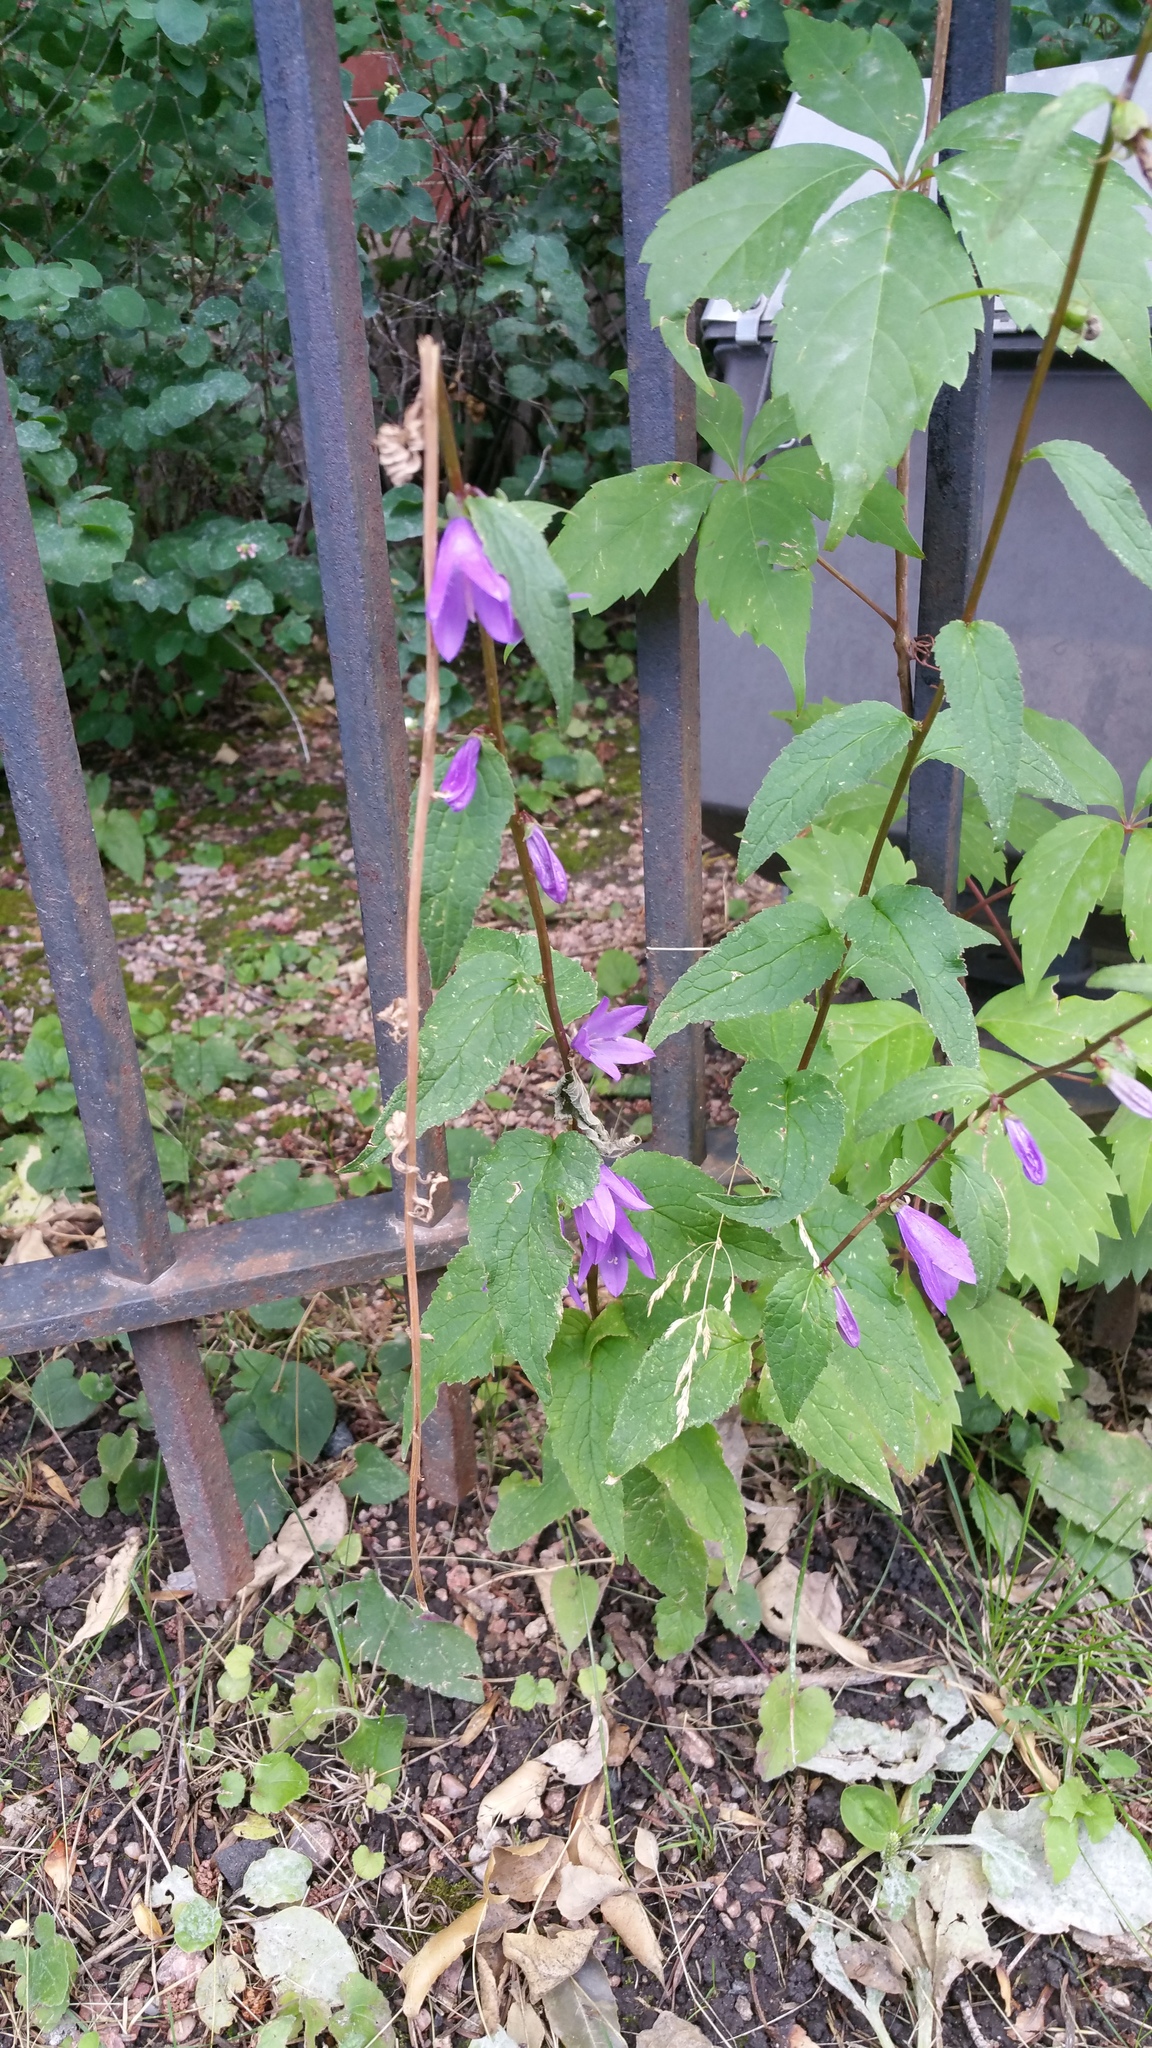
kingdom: Plantae
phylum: Tracheophyta
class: Magnoliopsida
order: Asterales
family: Campanulaceae
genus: Campanula
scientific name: Campanula rapunculoides
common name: Creeping bellflower
